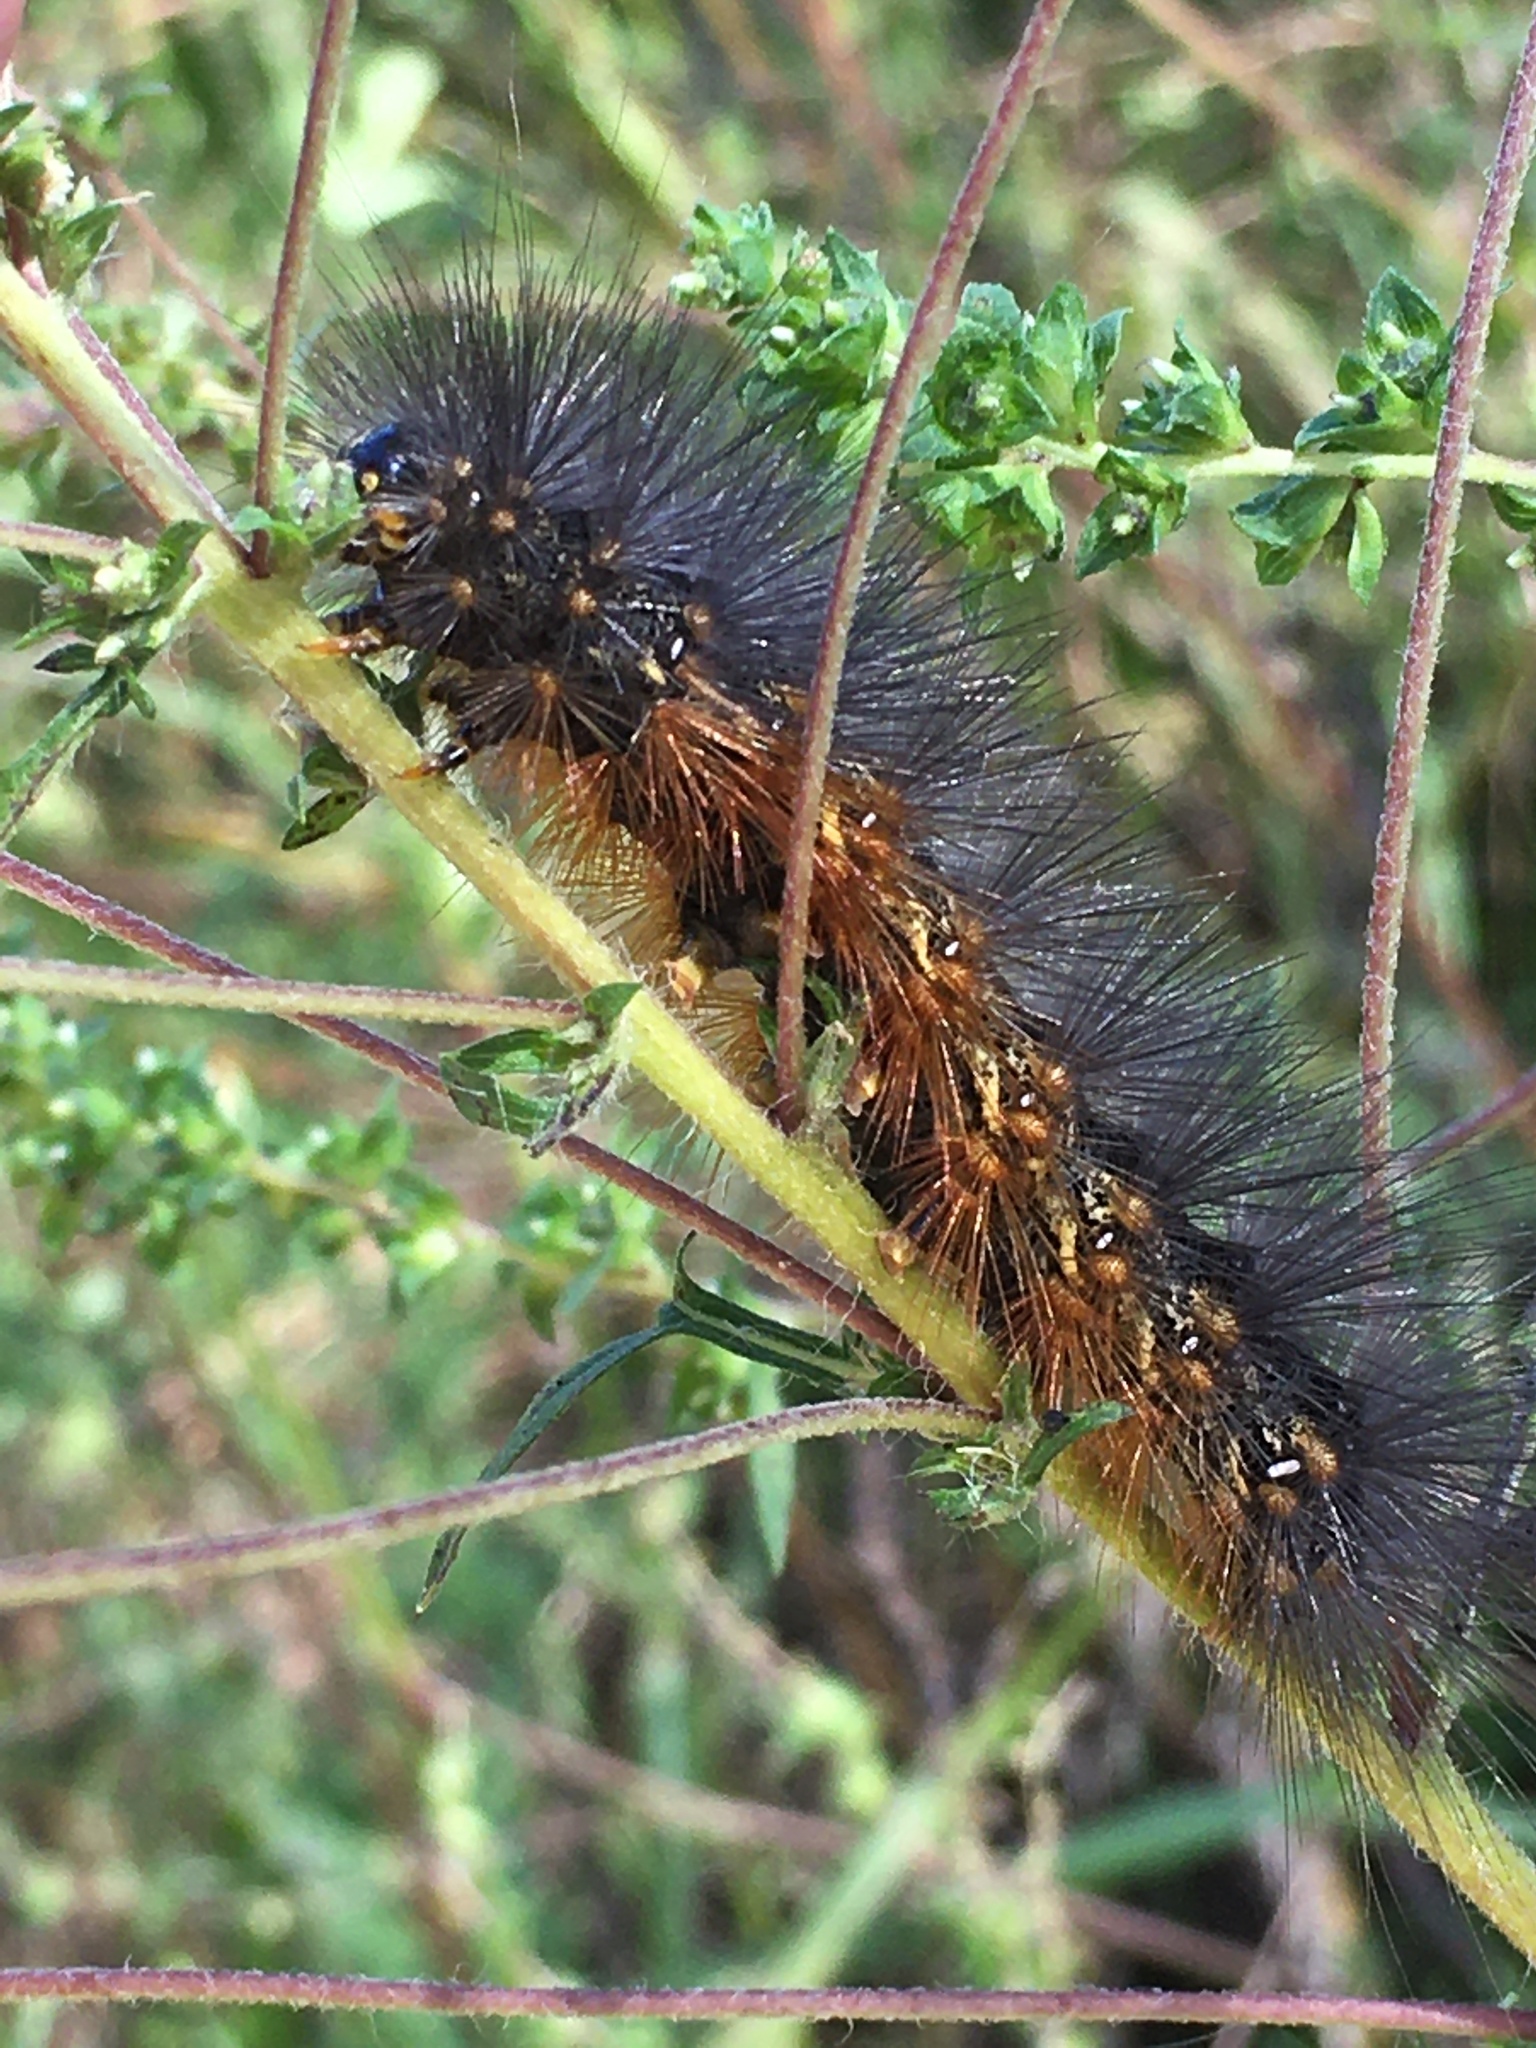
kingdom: Animalia
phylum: Arthropoda
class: Insecta
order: Lepidoptera
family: Erebidae
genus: Estigmene
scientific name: Estigmene acrea
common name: Salt marsh moth
